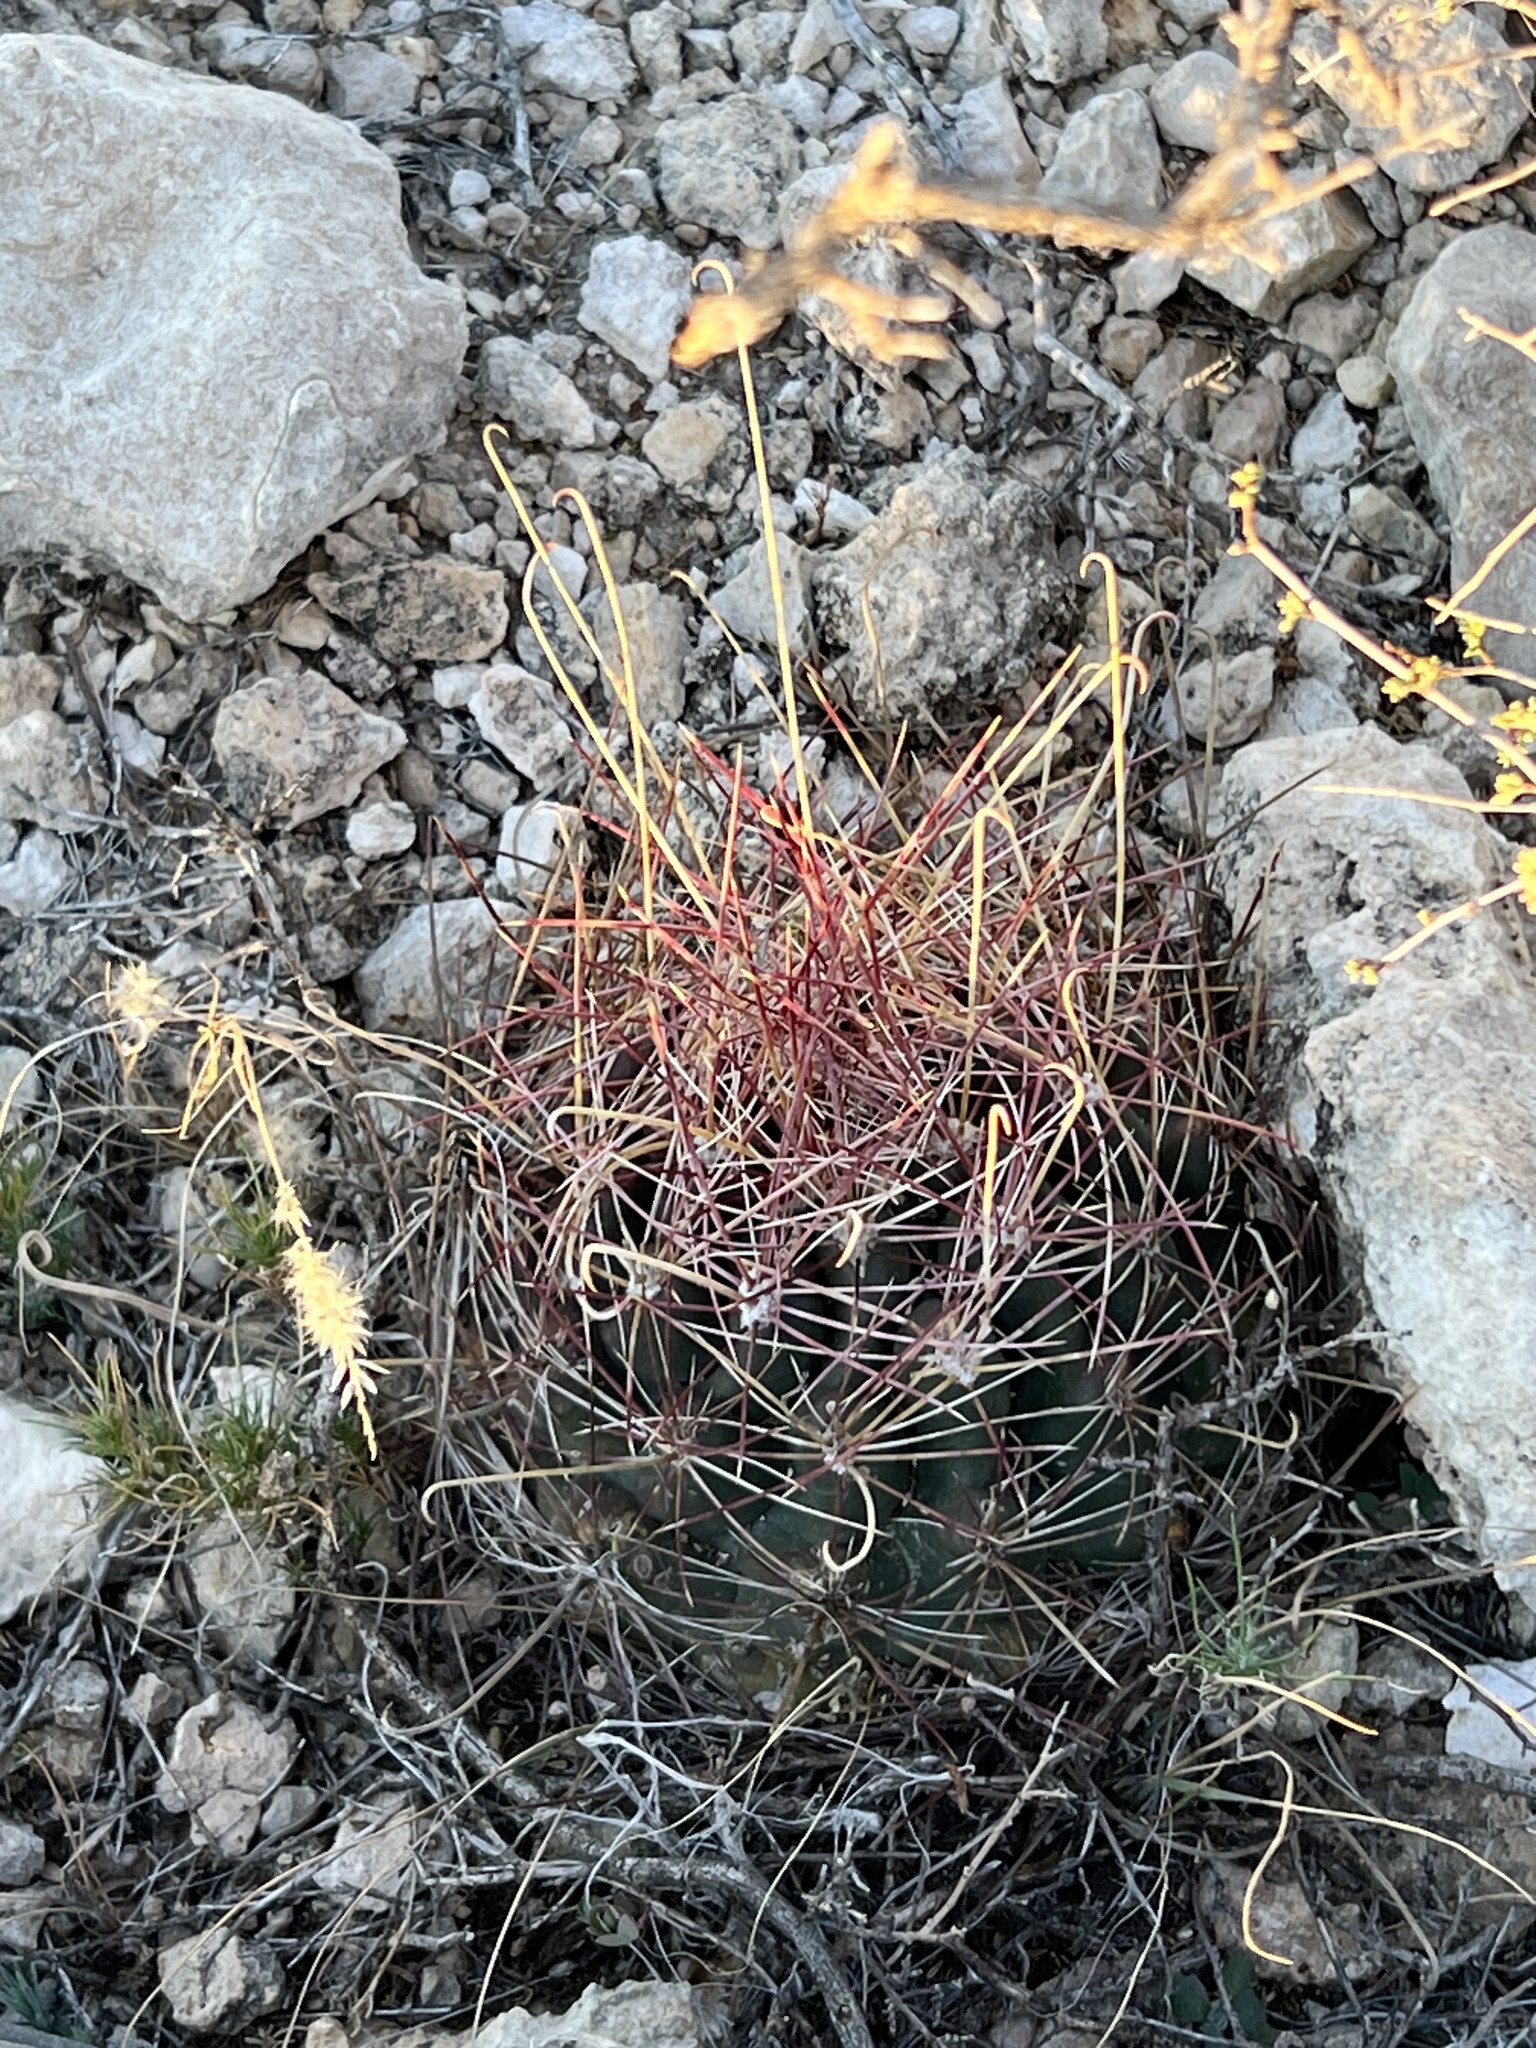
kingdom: Plantae
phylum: Tracheophyta
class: Magnoliopsida
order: Caryophyllales
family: Cactaceae
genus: Bisnaga
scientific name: Bisnaga hamatacantha
